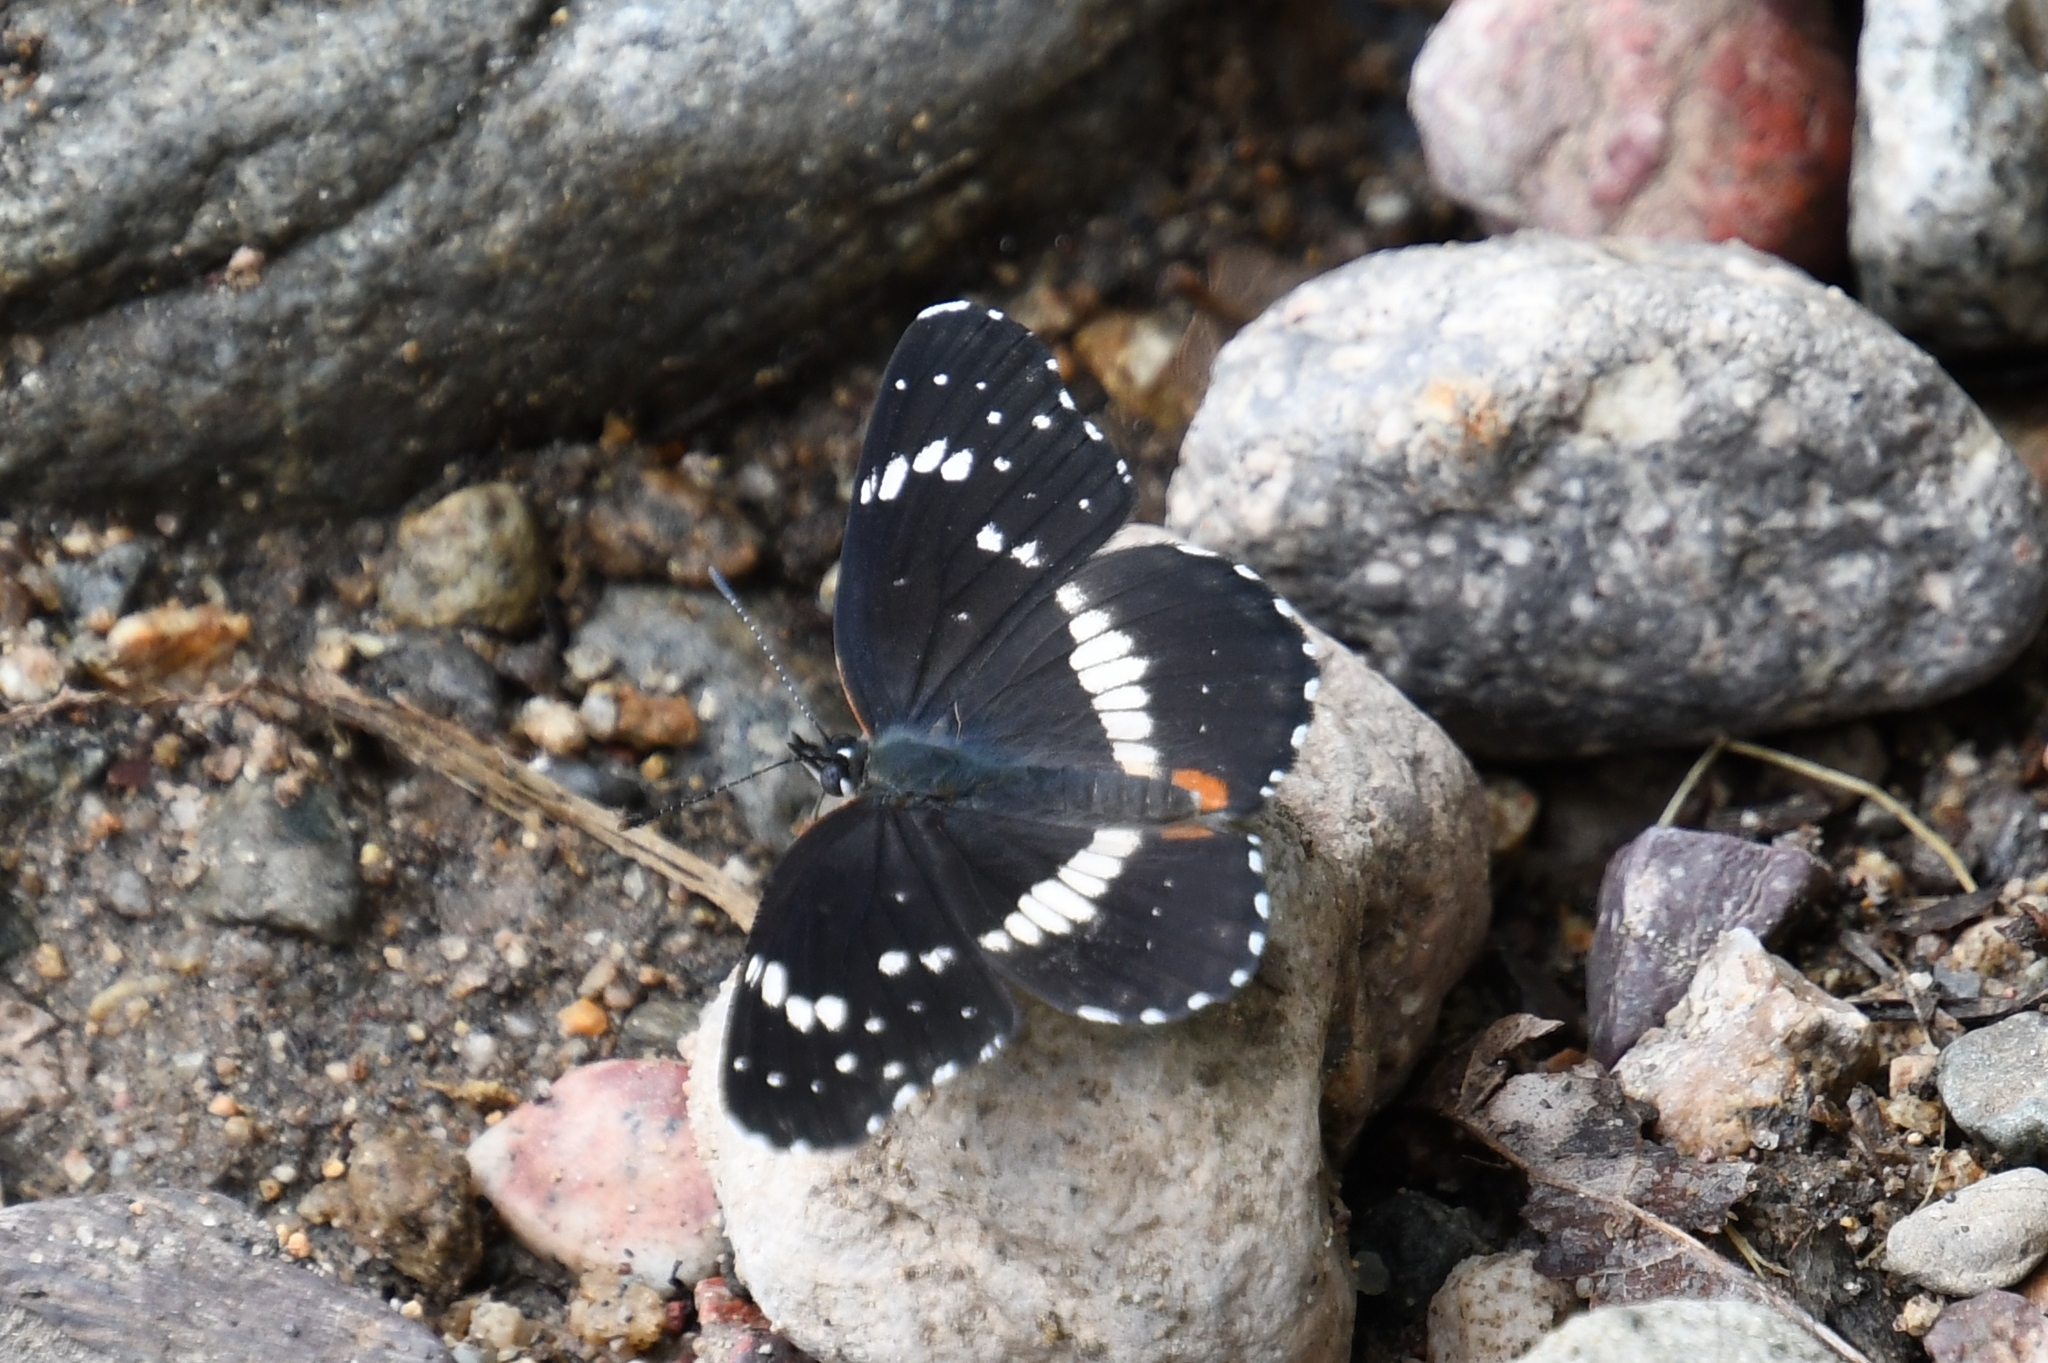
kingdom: Animalia
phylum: Arthropoda
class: Insecta
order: Lepidoptera
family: Nymphalidae
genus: Chlosyne
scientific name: Chlosyne lacinia
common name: Bordered patch
